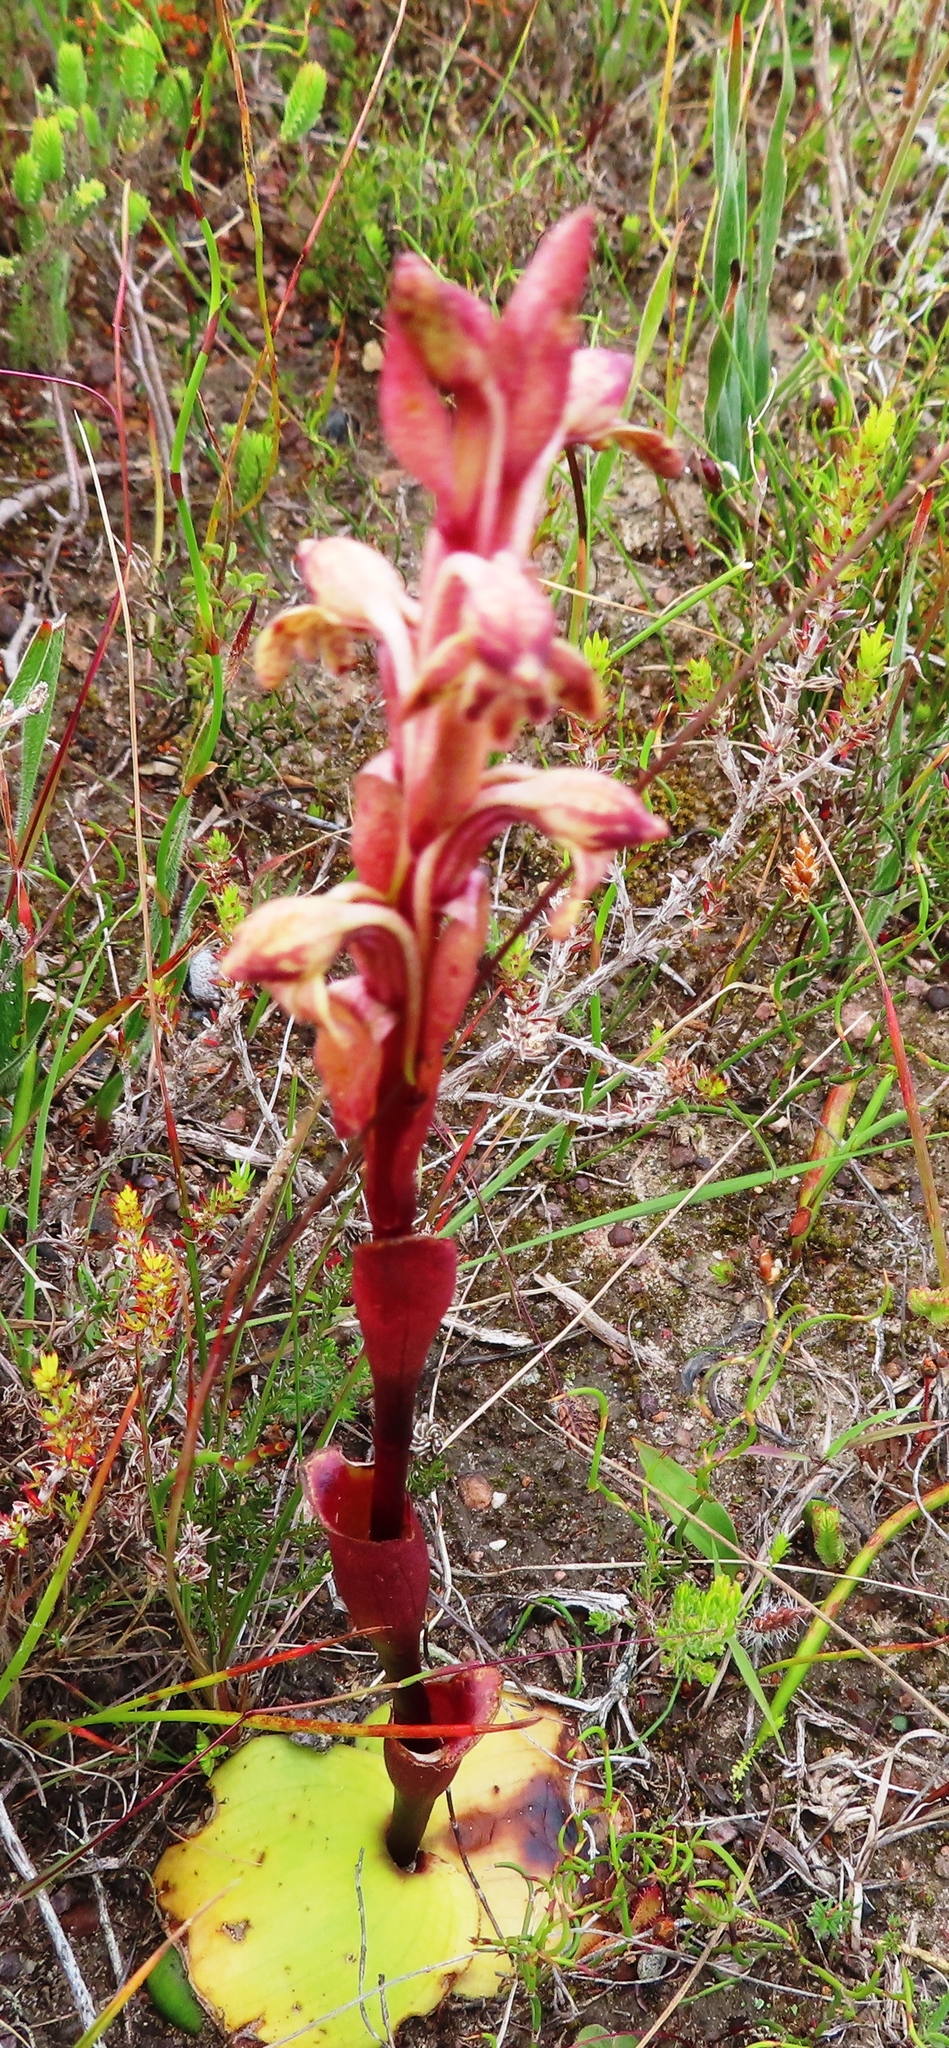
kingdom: Plantae
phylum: Tracheophyta
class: Liliopsida
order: Asparagales
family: Orchidaceae
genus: Satyrium
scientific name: Satyrium bicorne
